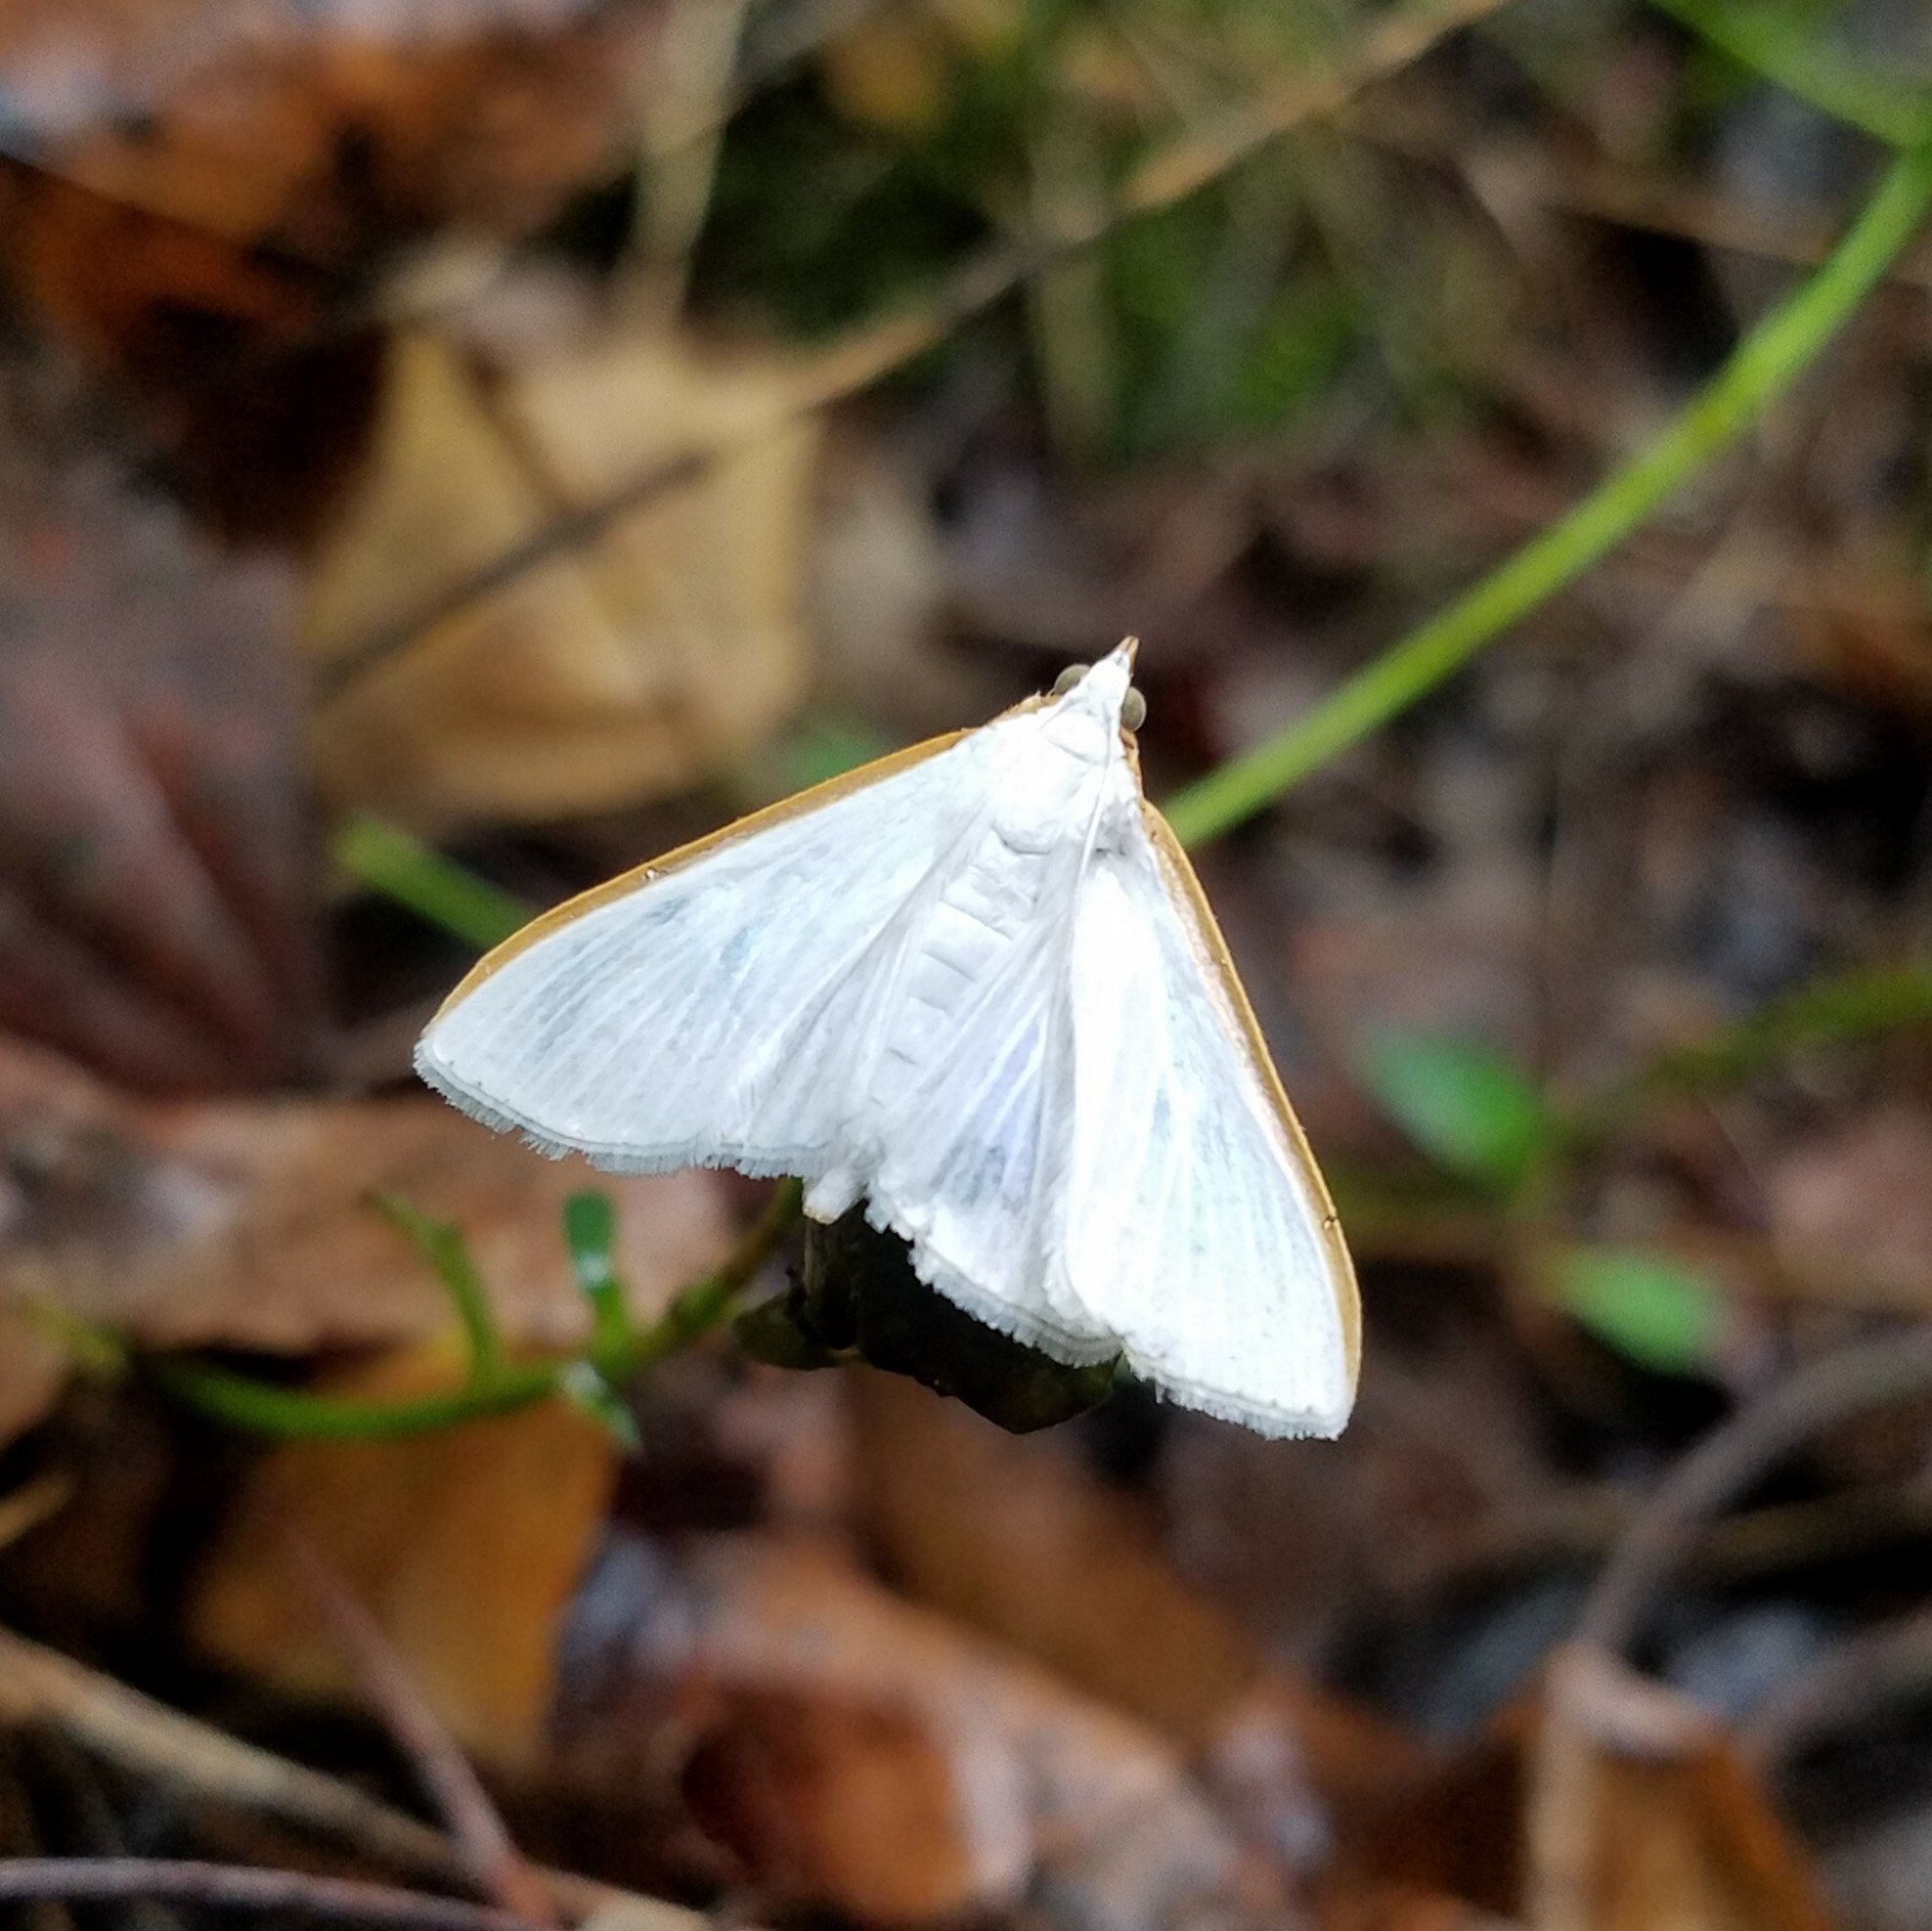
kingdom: Animalia
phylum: Arthropoda
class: Insecta
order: Lepidoptera
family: Crambidae
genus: Diaphania
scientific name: Diaphania costata
